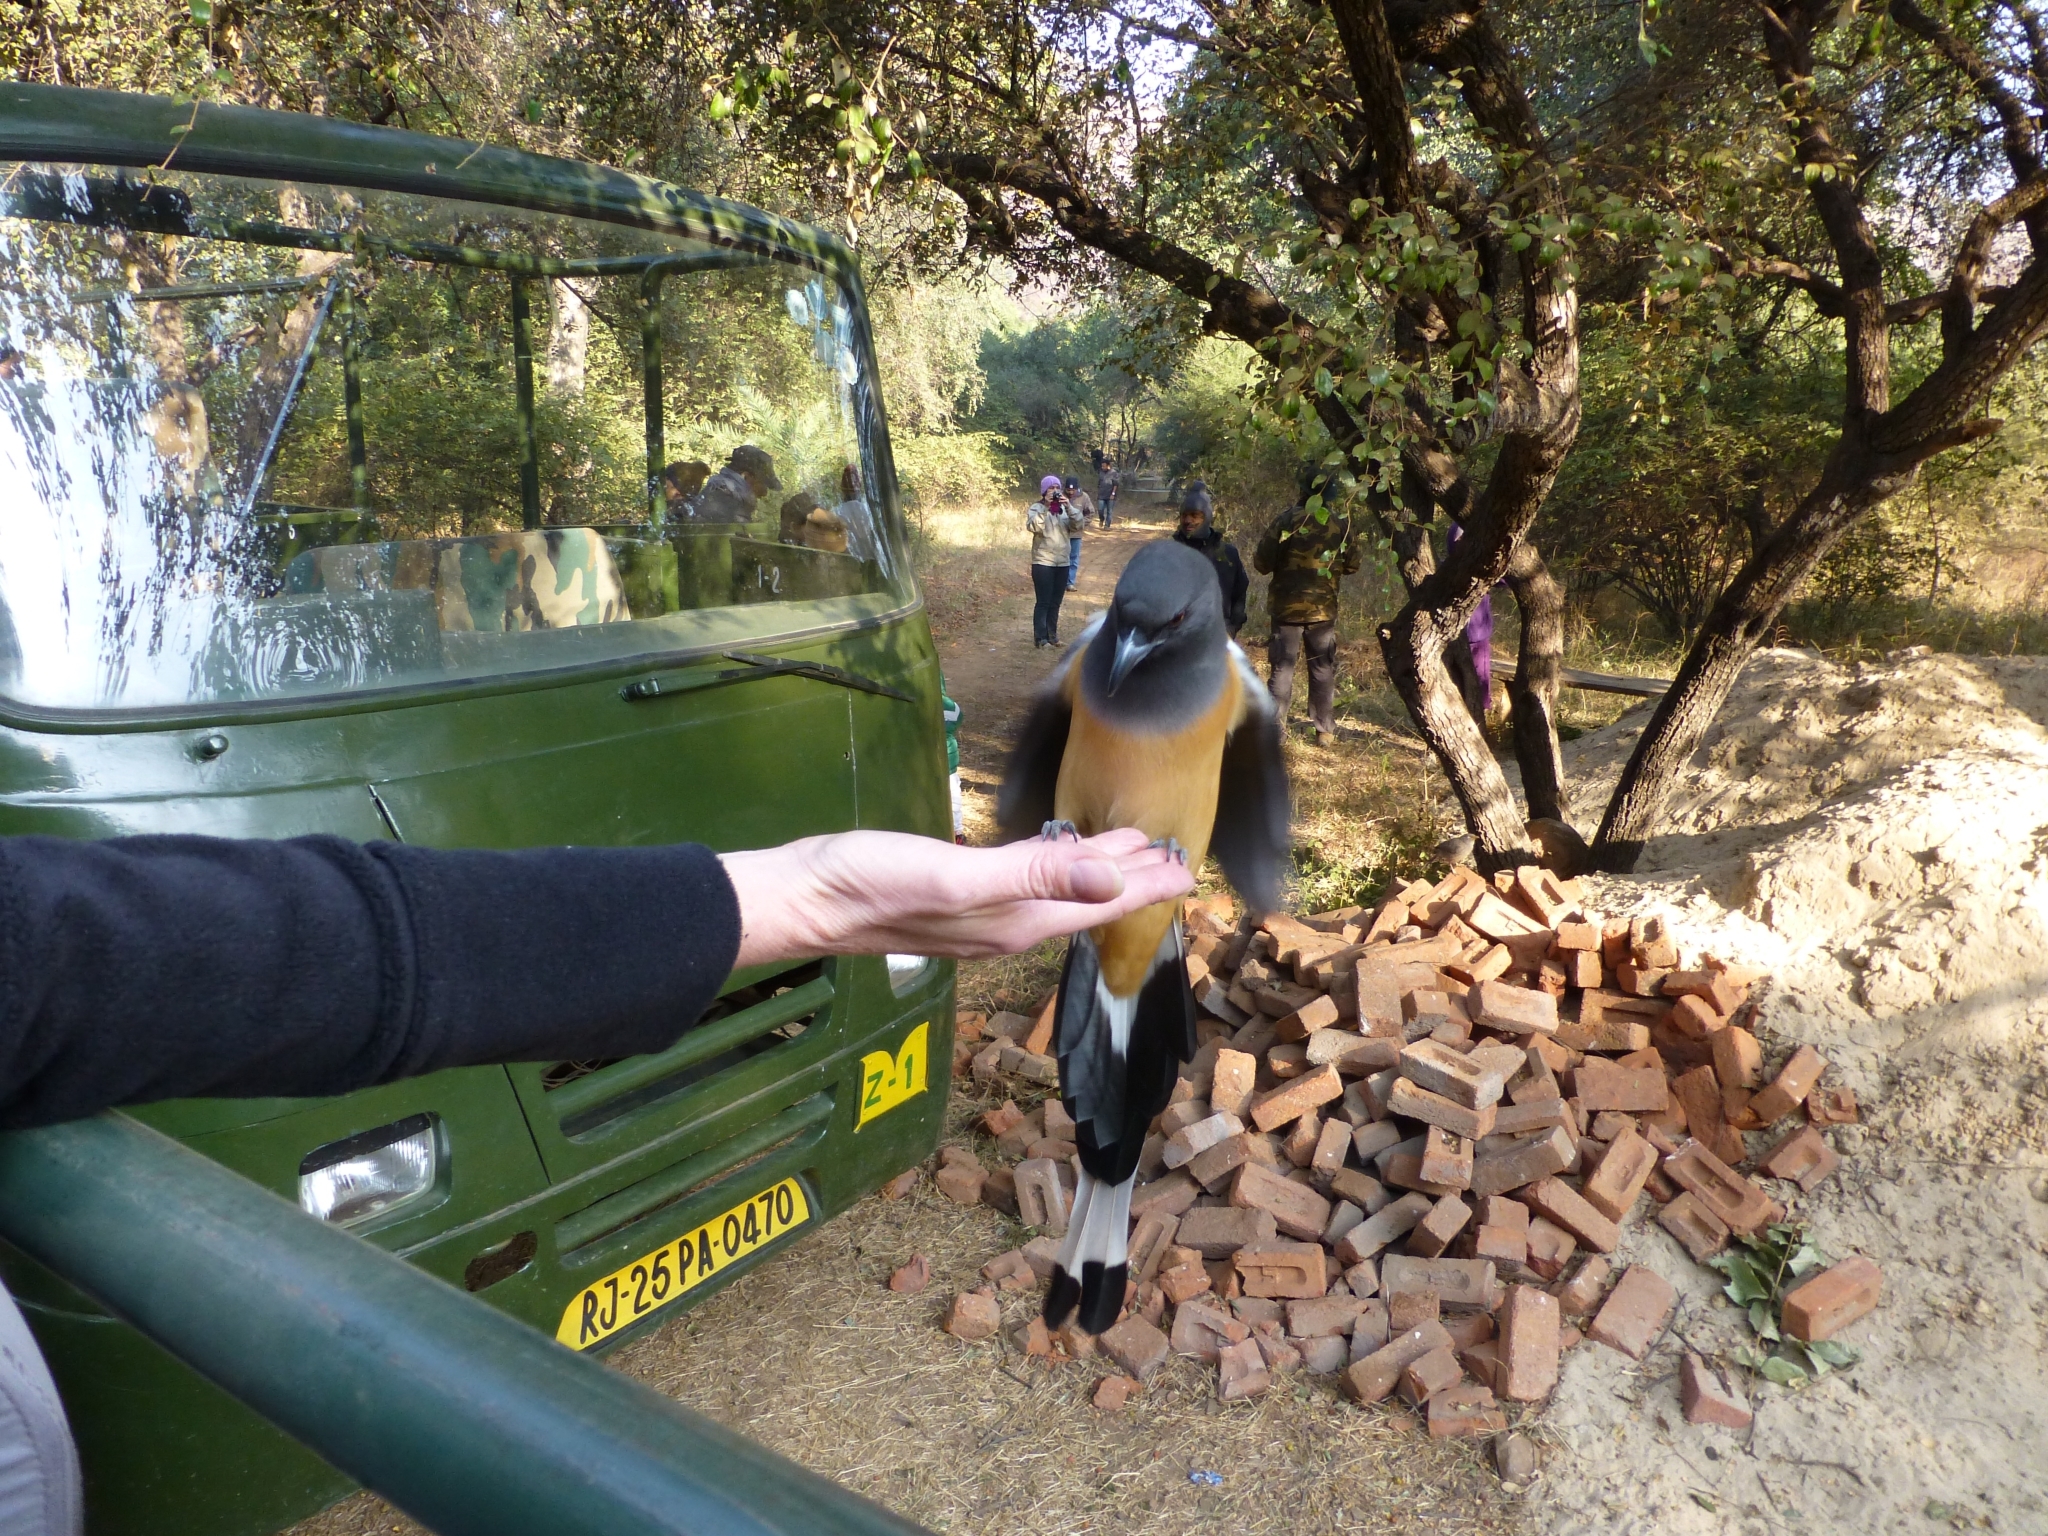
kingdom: Animalia
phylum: Chordata
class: Aves
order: Passeriformes
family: Corvidae
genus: Dendrocitta
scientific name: Dendrocitta vagabunda
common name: Rufous treepie
